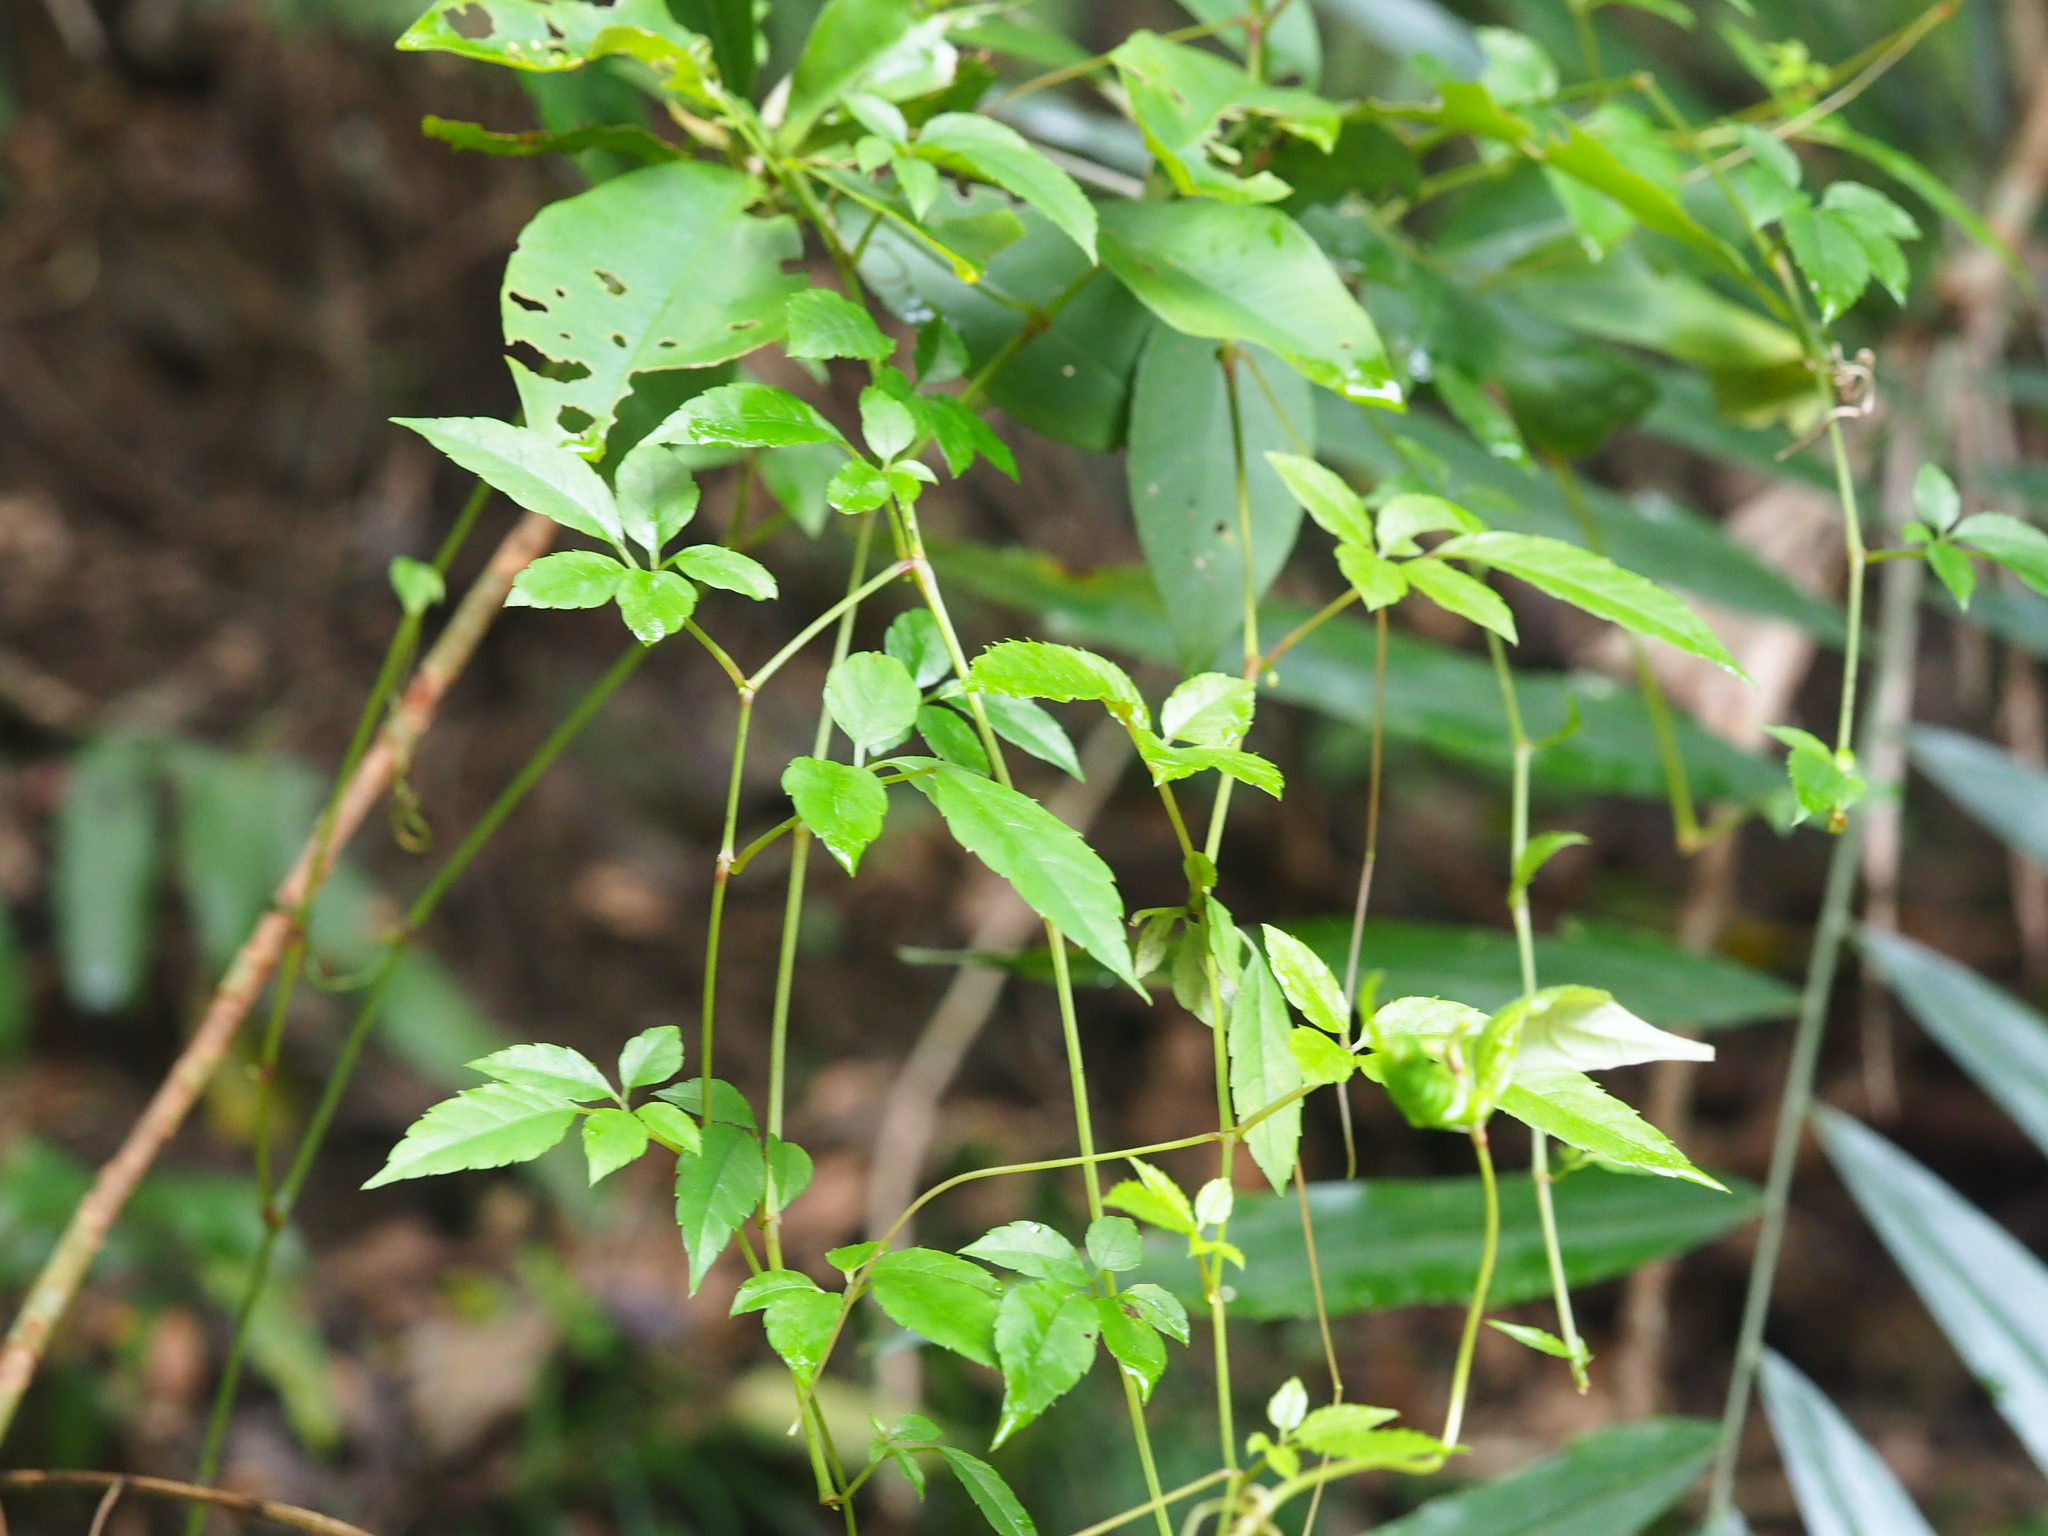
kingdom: Plantae
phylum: Tracheophyta
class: Magnoliopsida
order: Vitales
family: Vitaceae
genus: Causonis
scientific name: Causonis corniculata
